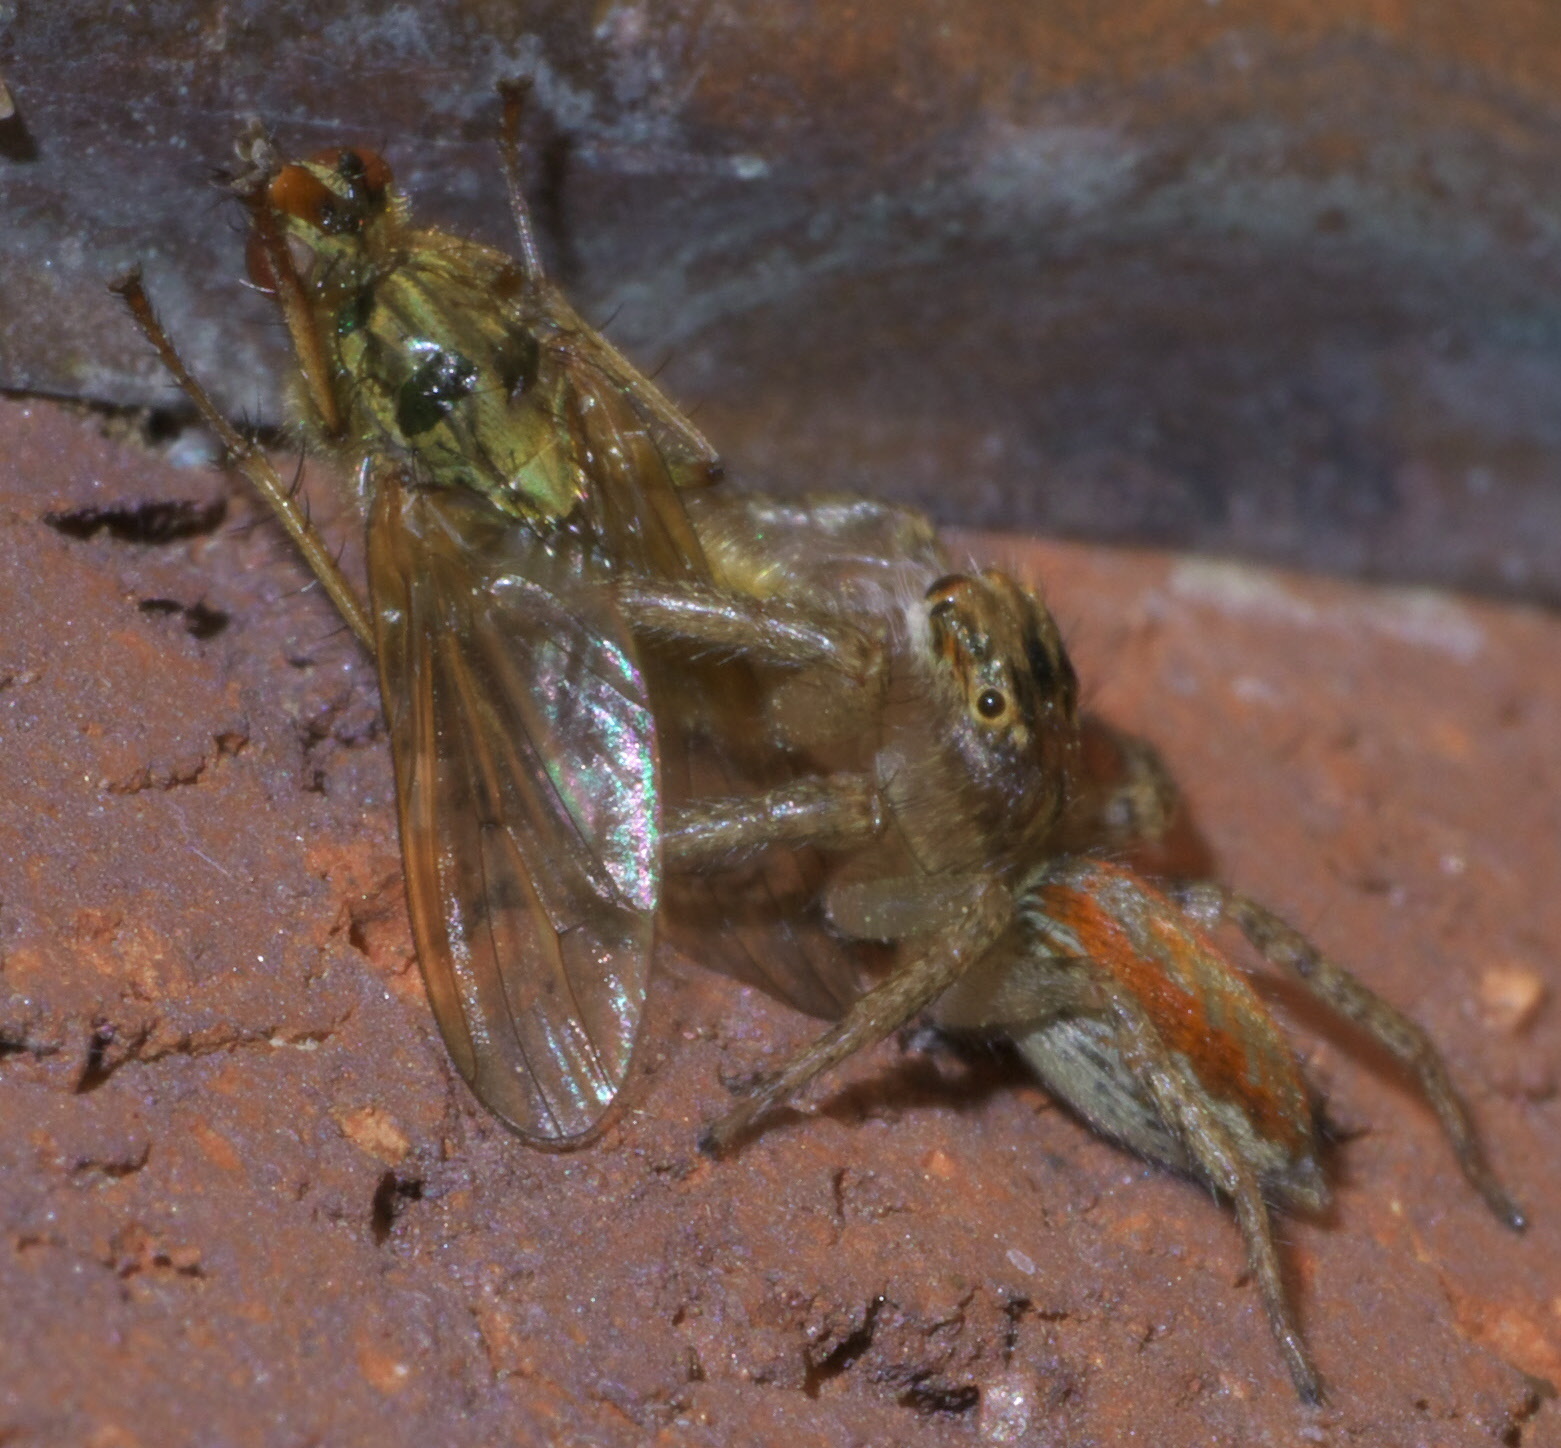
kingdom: Animalia
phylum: Arthropoda
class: Arachnida
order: Araneae
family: Salticidae
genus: Maevia
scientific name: Maevia inclemens
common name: Dimorphic jumper
